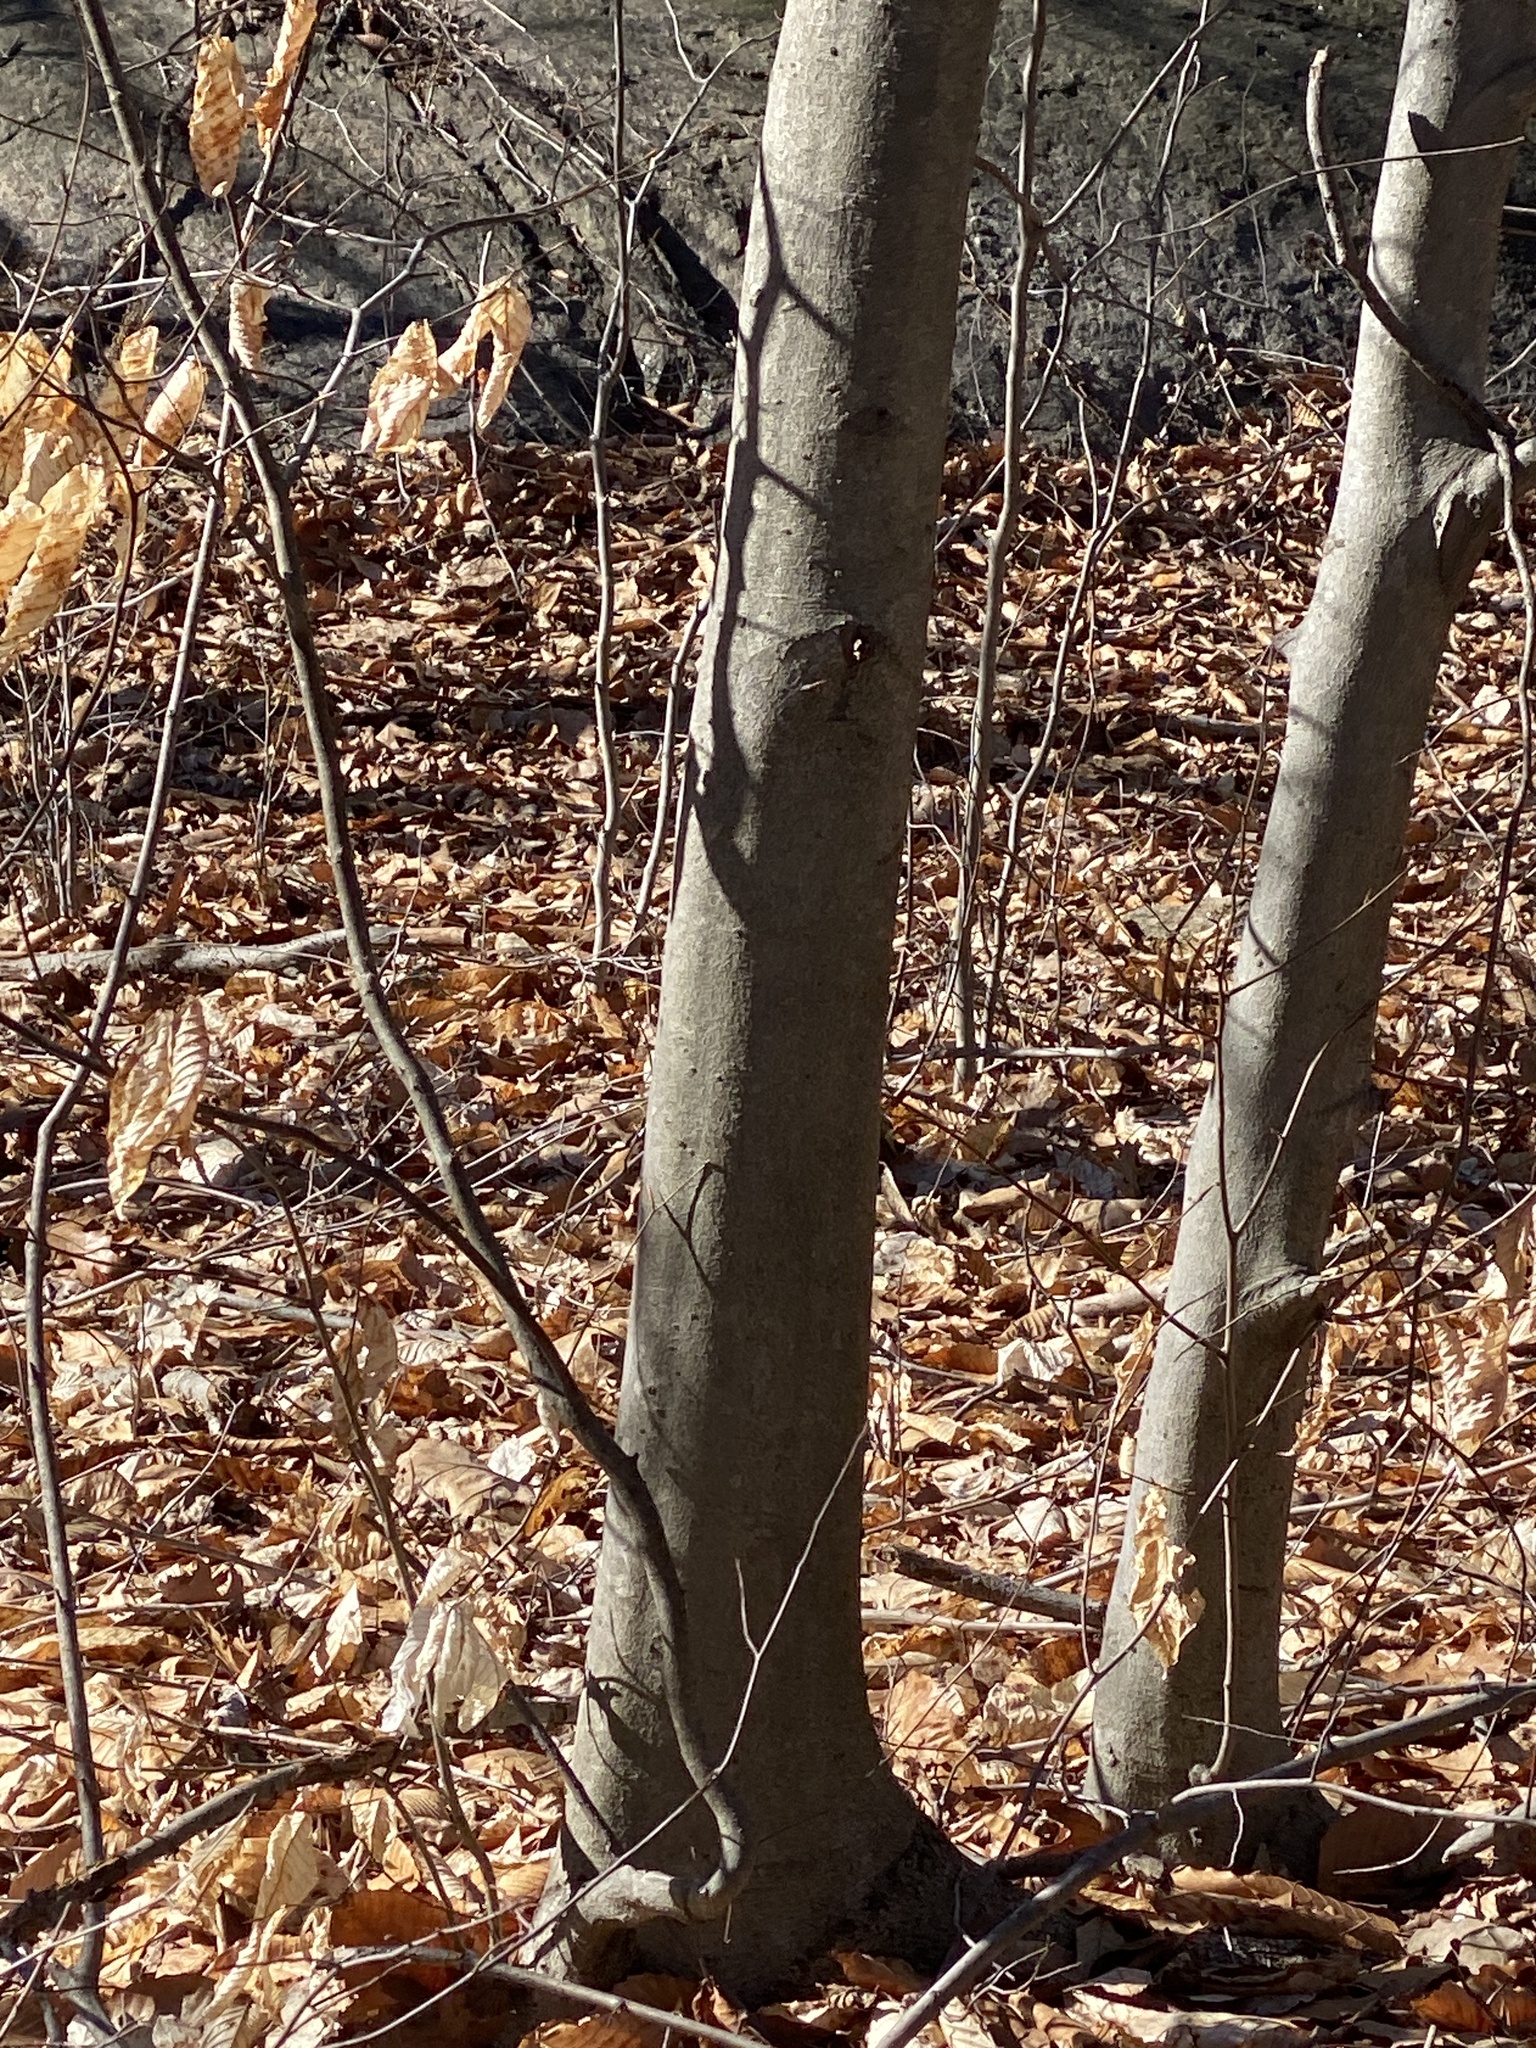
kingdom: Plantae
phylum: Tracheophyta
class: Magnoliopsida
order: Fagales
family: Fagaceae
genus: Fagus
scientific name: Fagus grandifolia
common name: American beech
